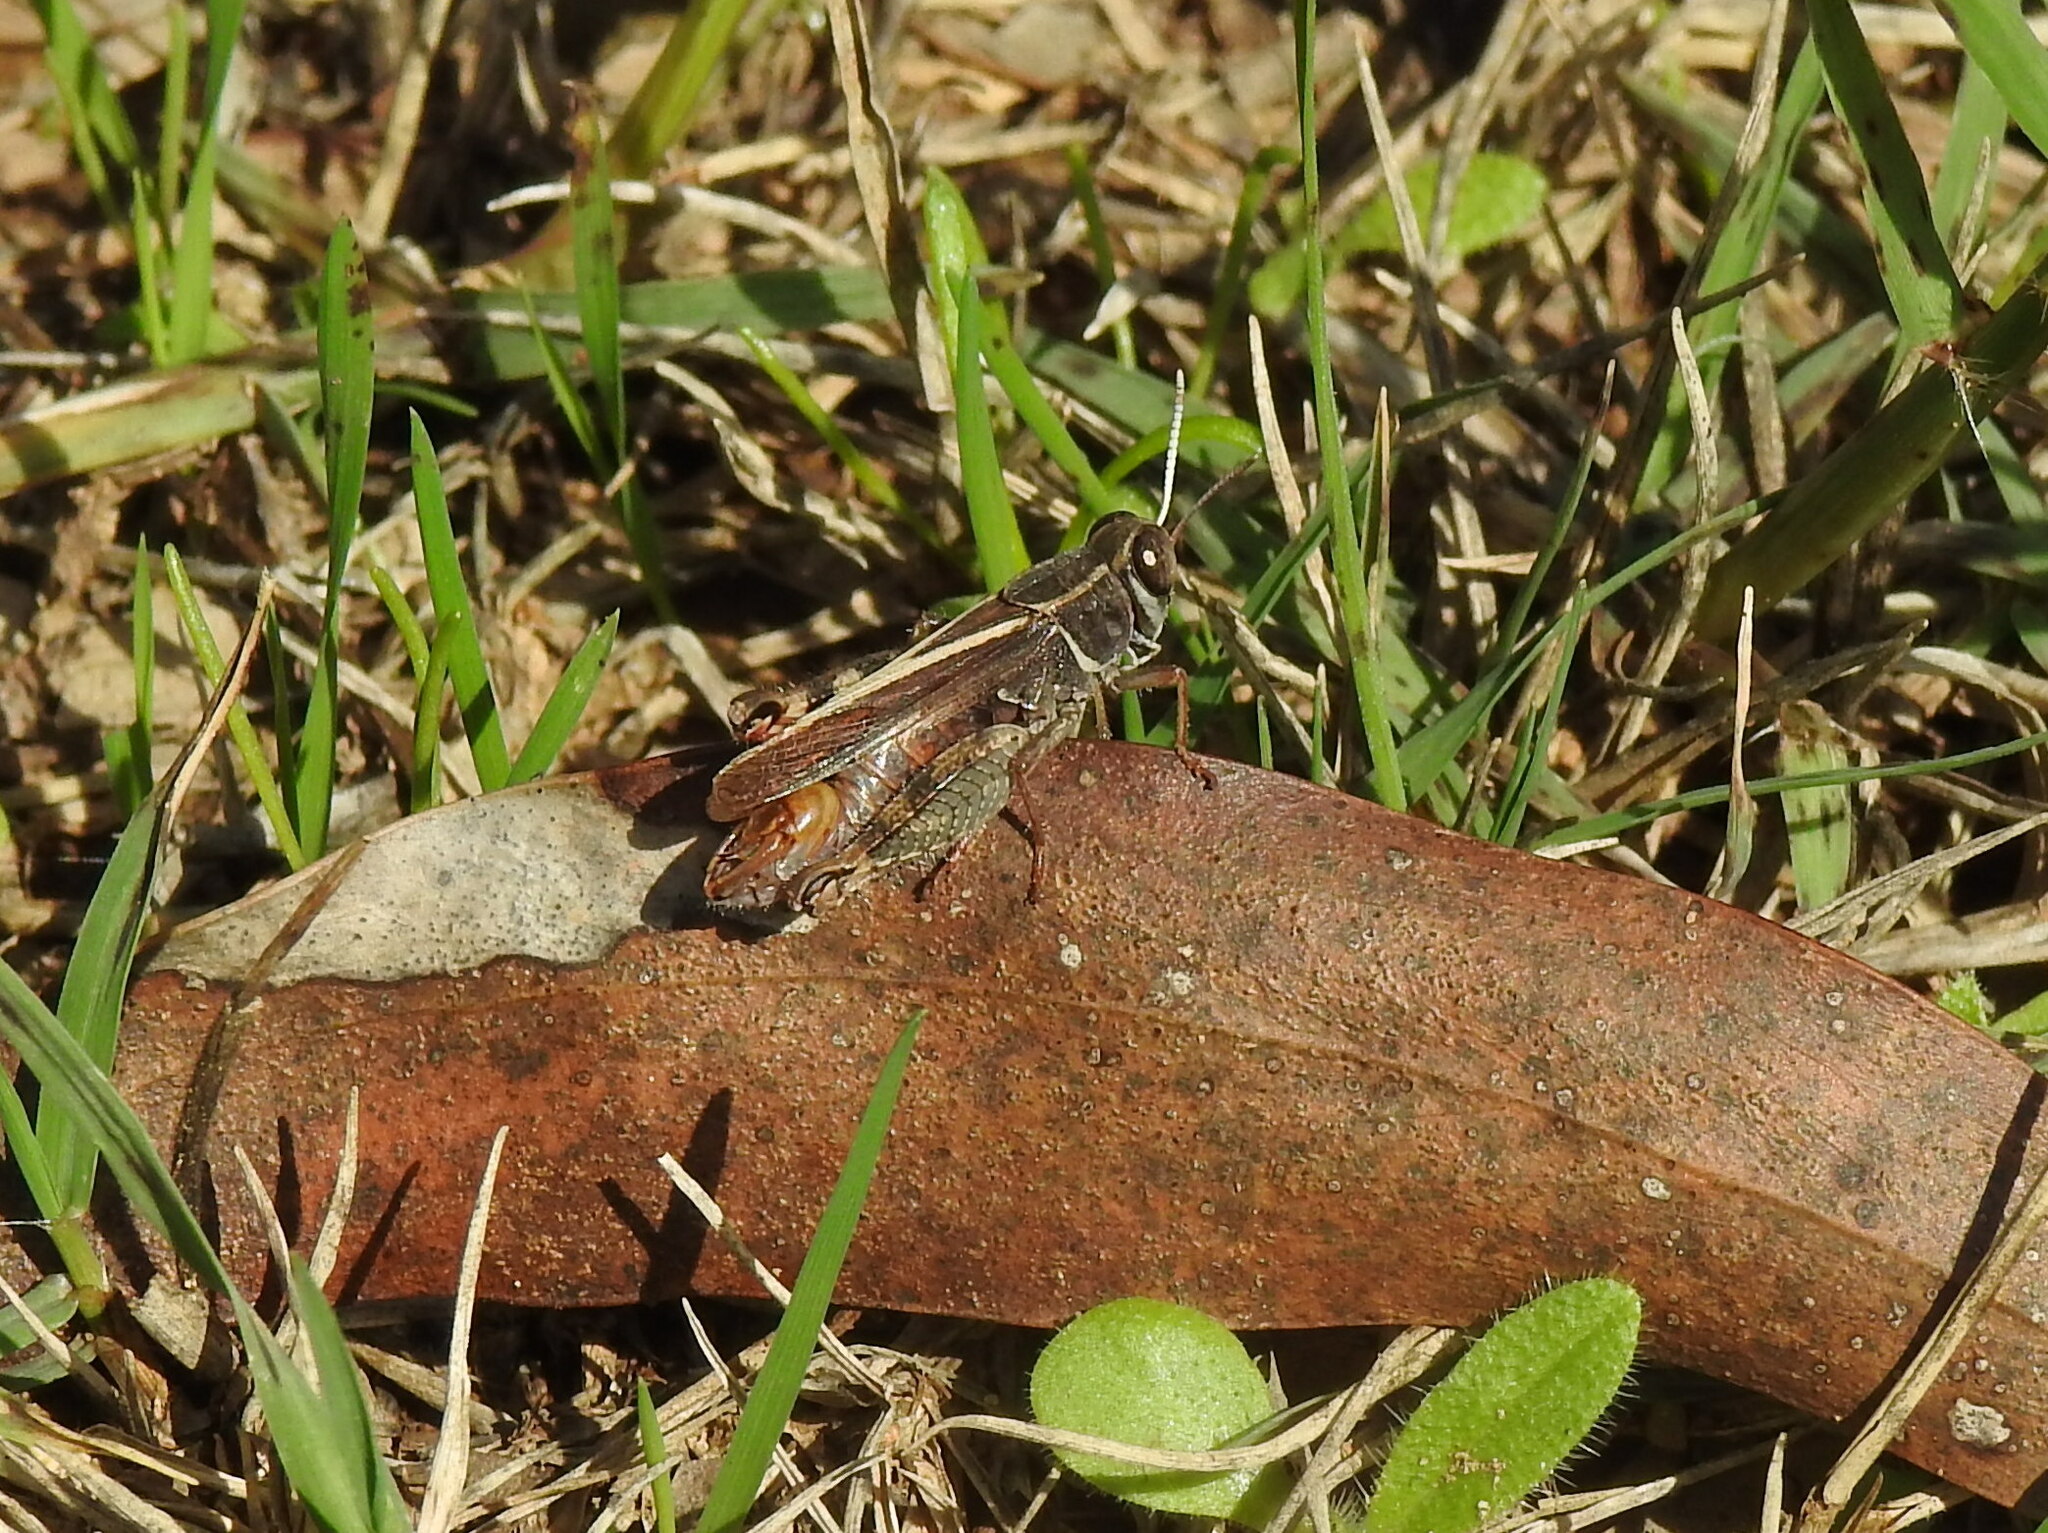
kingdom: Animalia
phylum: Arthropoda
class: Insecta
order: Orthoptera
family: Acrididae
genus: Calliptamus
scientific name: Calliptamus barbarus
